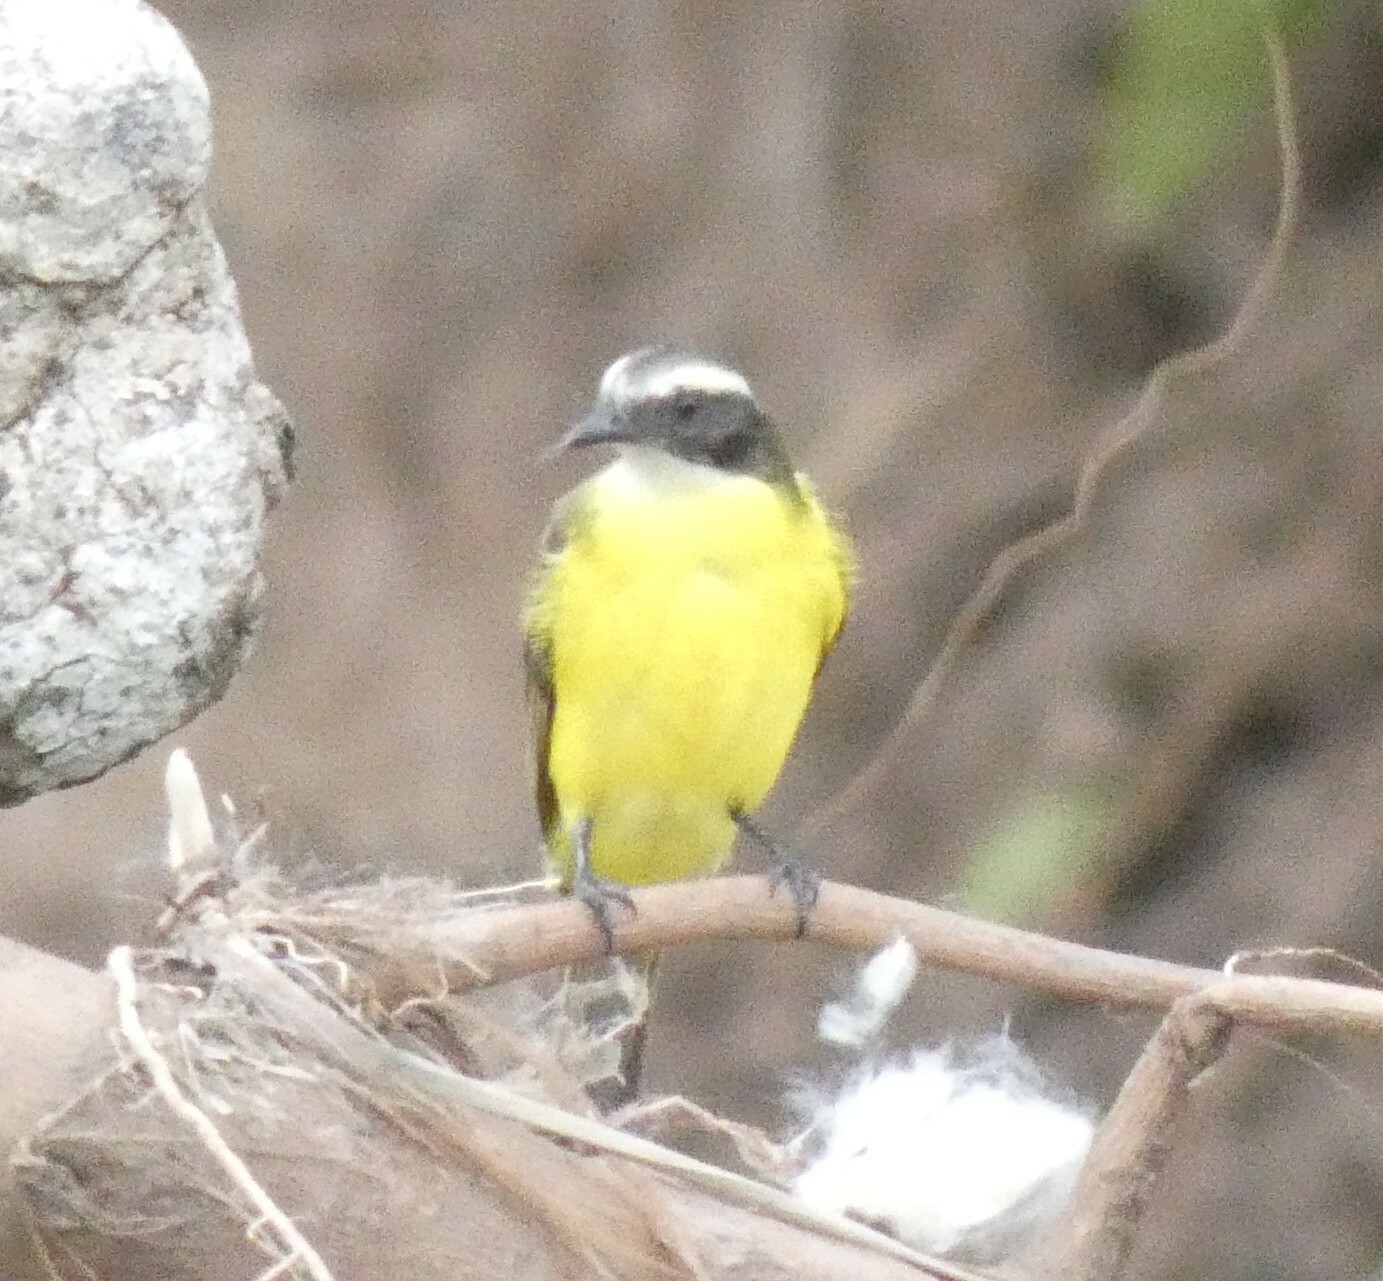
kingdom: Animalia
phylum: Chordata
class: Aves
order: Passeriformes
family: Tyrannidae
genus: Myiozetetes
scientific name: Myiozetetes similis
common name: Social flycatcher
